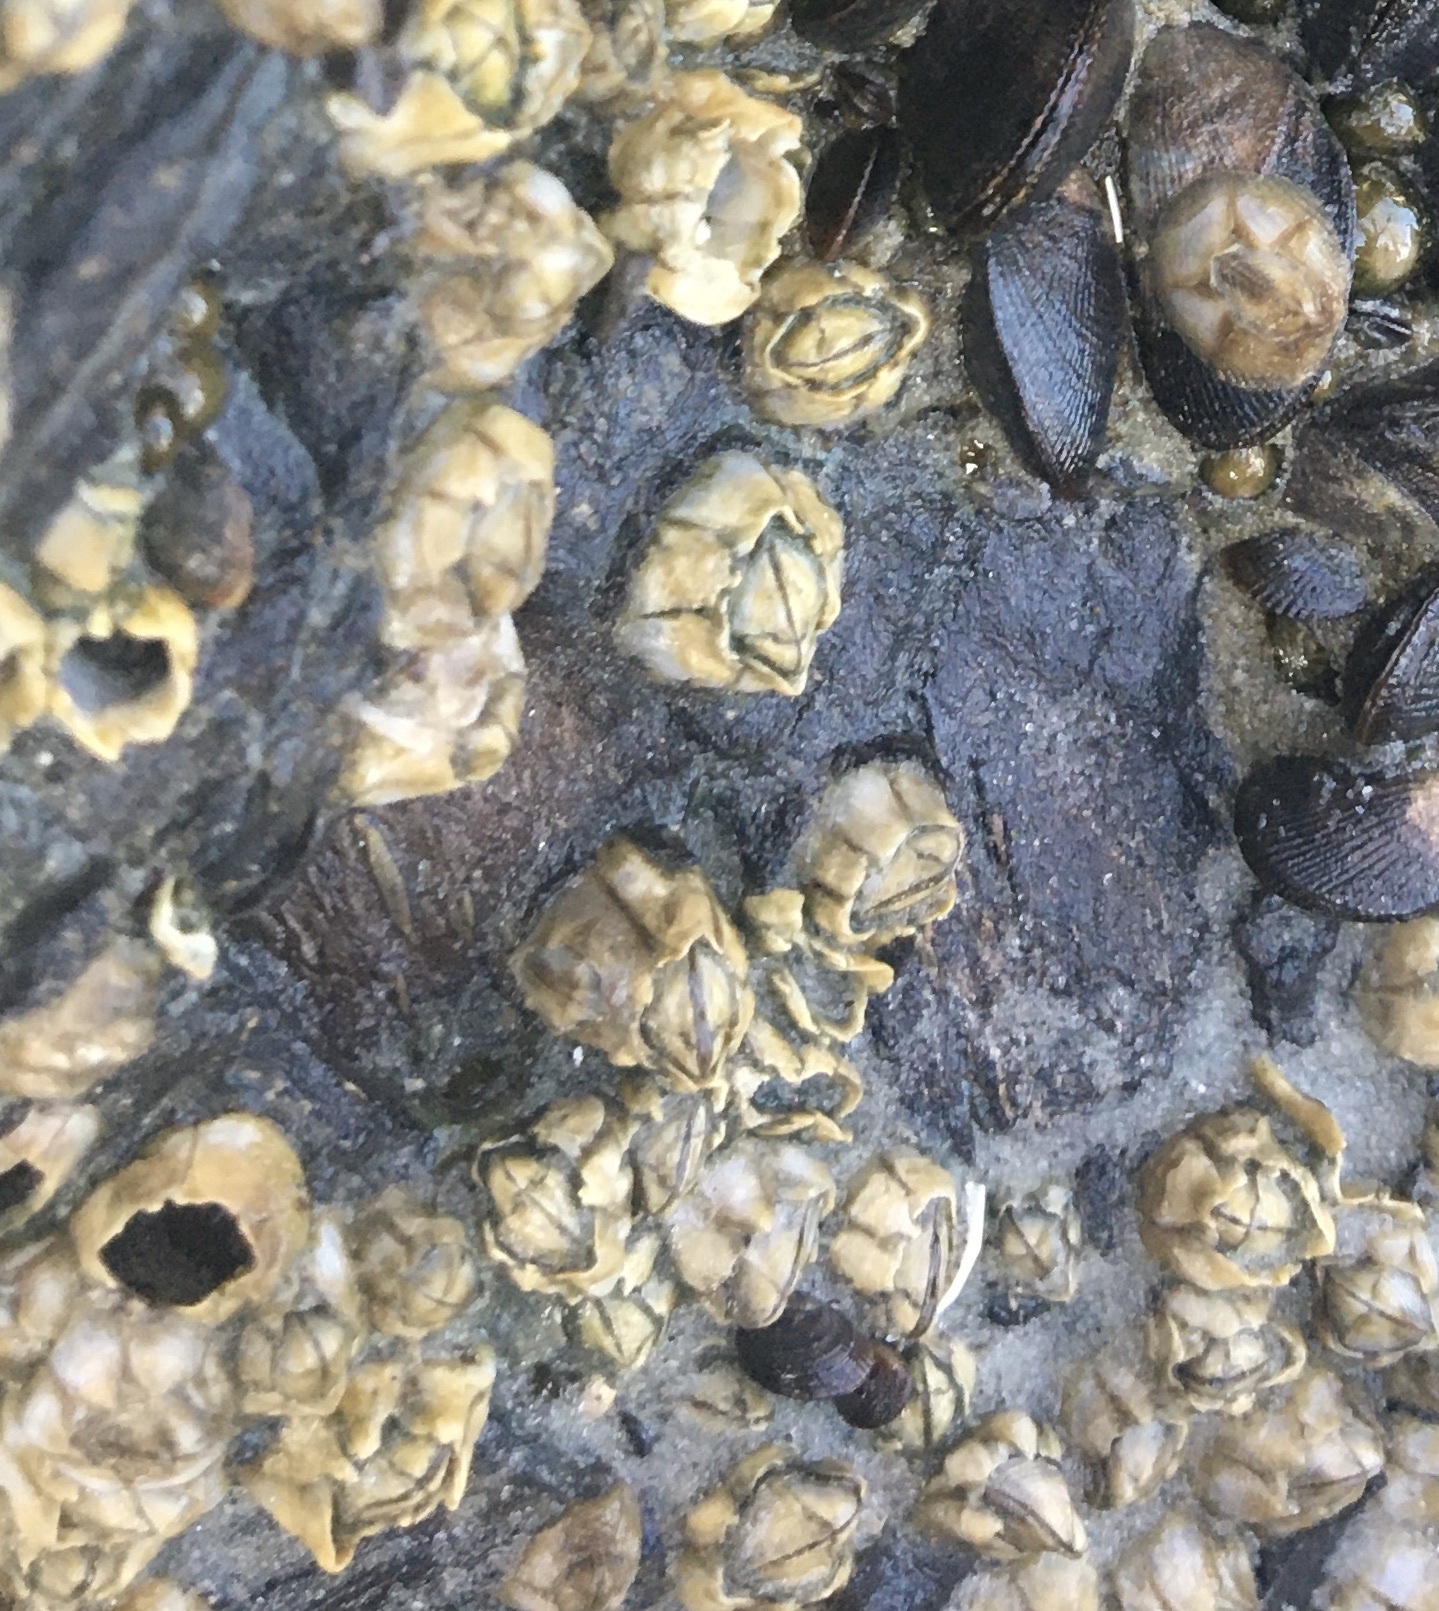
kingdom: Animalia
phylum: Arthropoda
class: Maxillopoda
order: Sessilia
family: Chthamalidae
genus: Chthamalus
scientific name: Chthamalus fragilis
